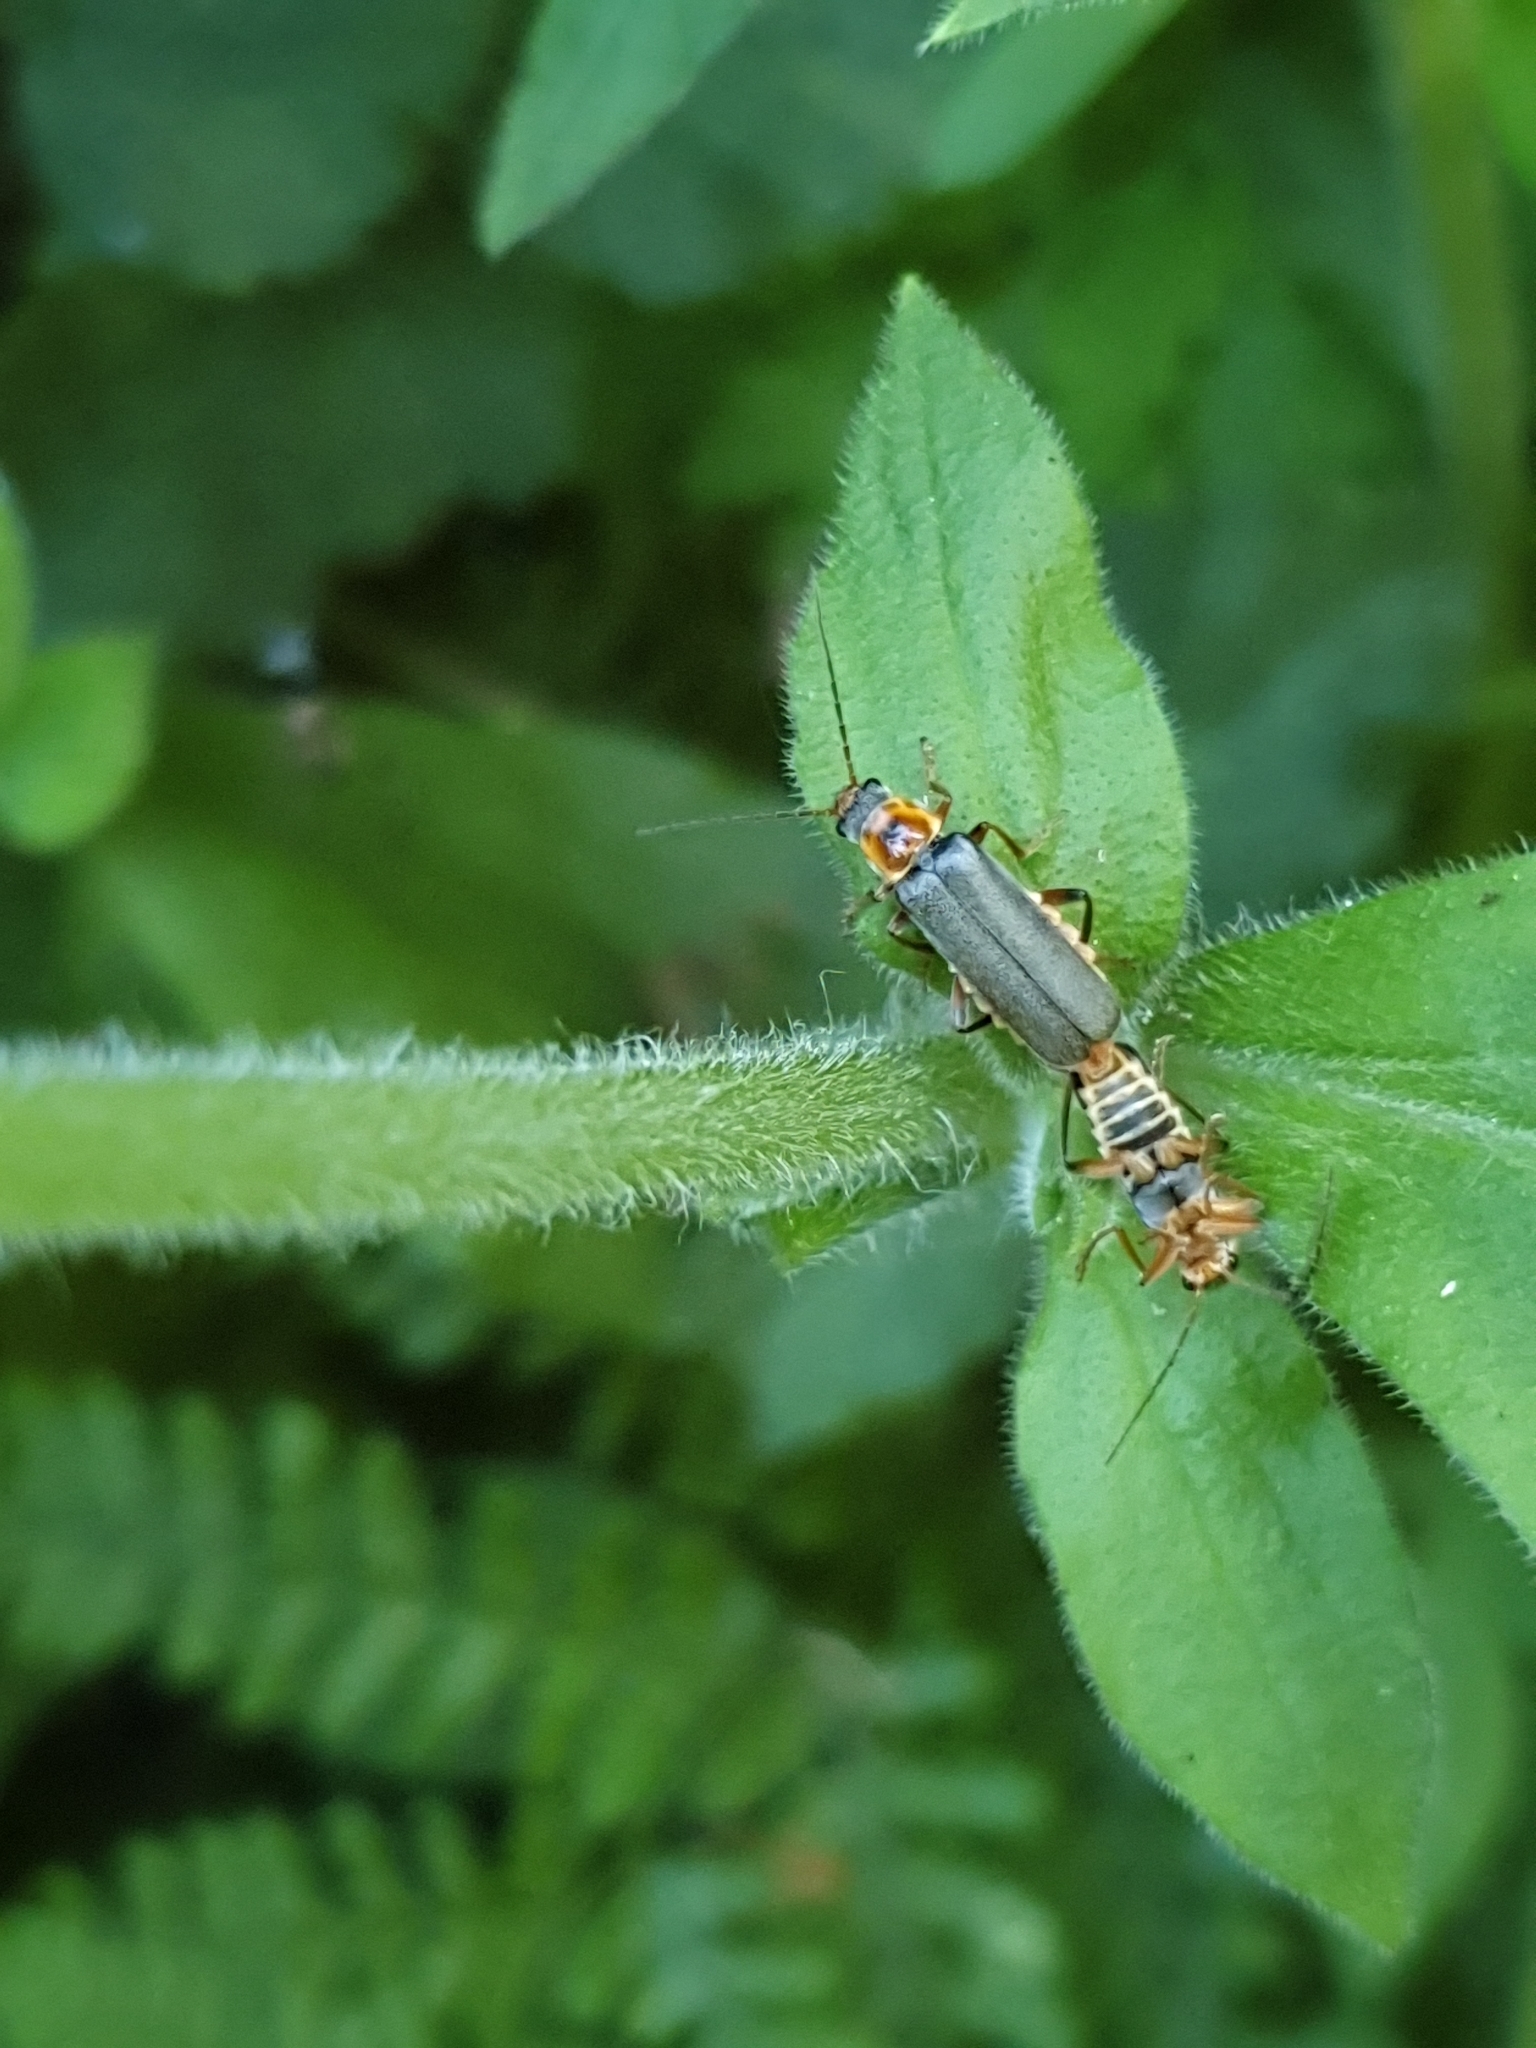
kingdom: Animalia
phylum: Arthropoda
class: Insecta
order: Coleoptera
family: Cantharidae
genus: Cantharis
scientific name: Cantharis nigricans
